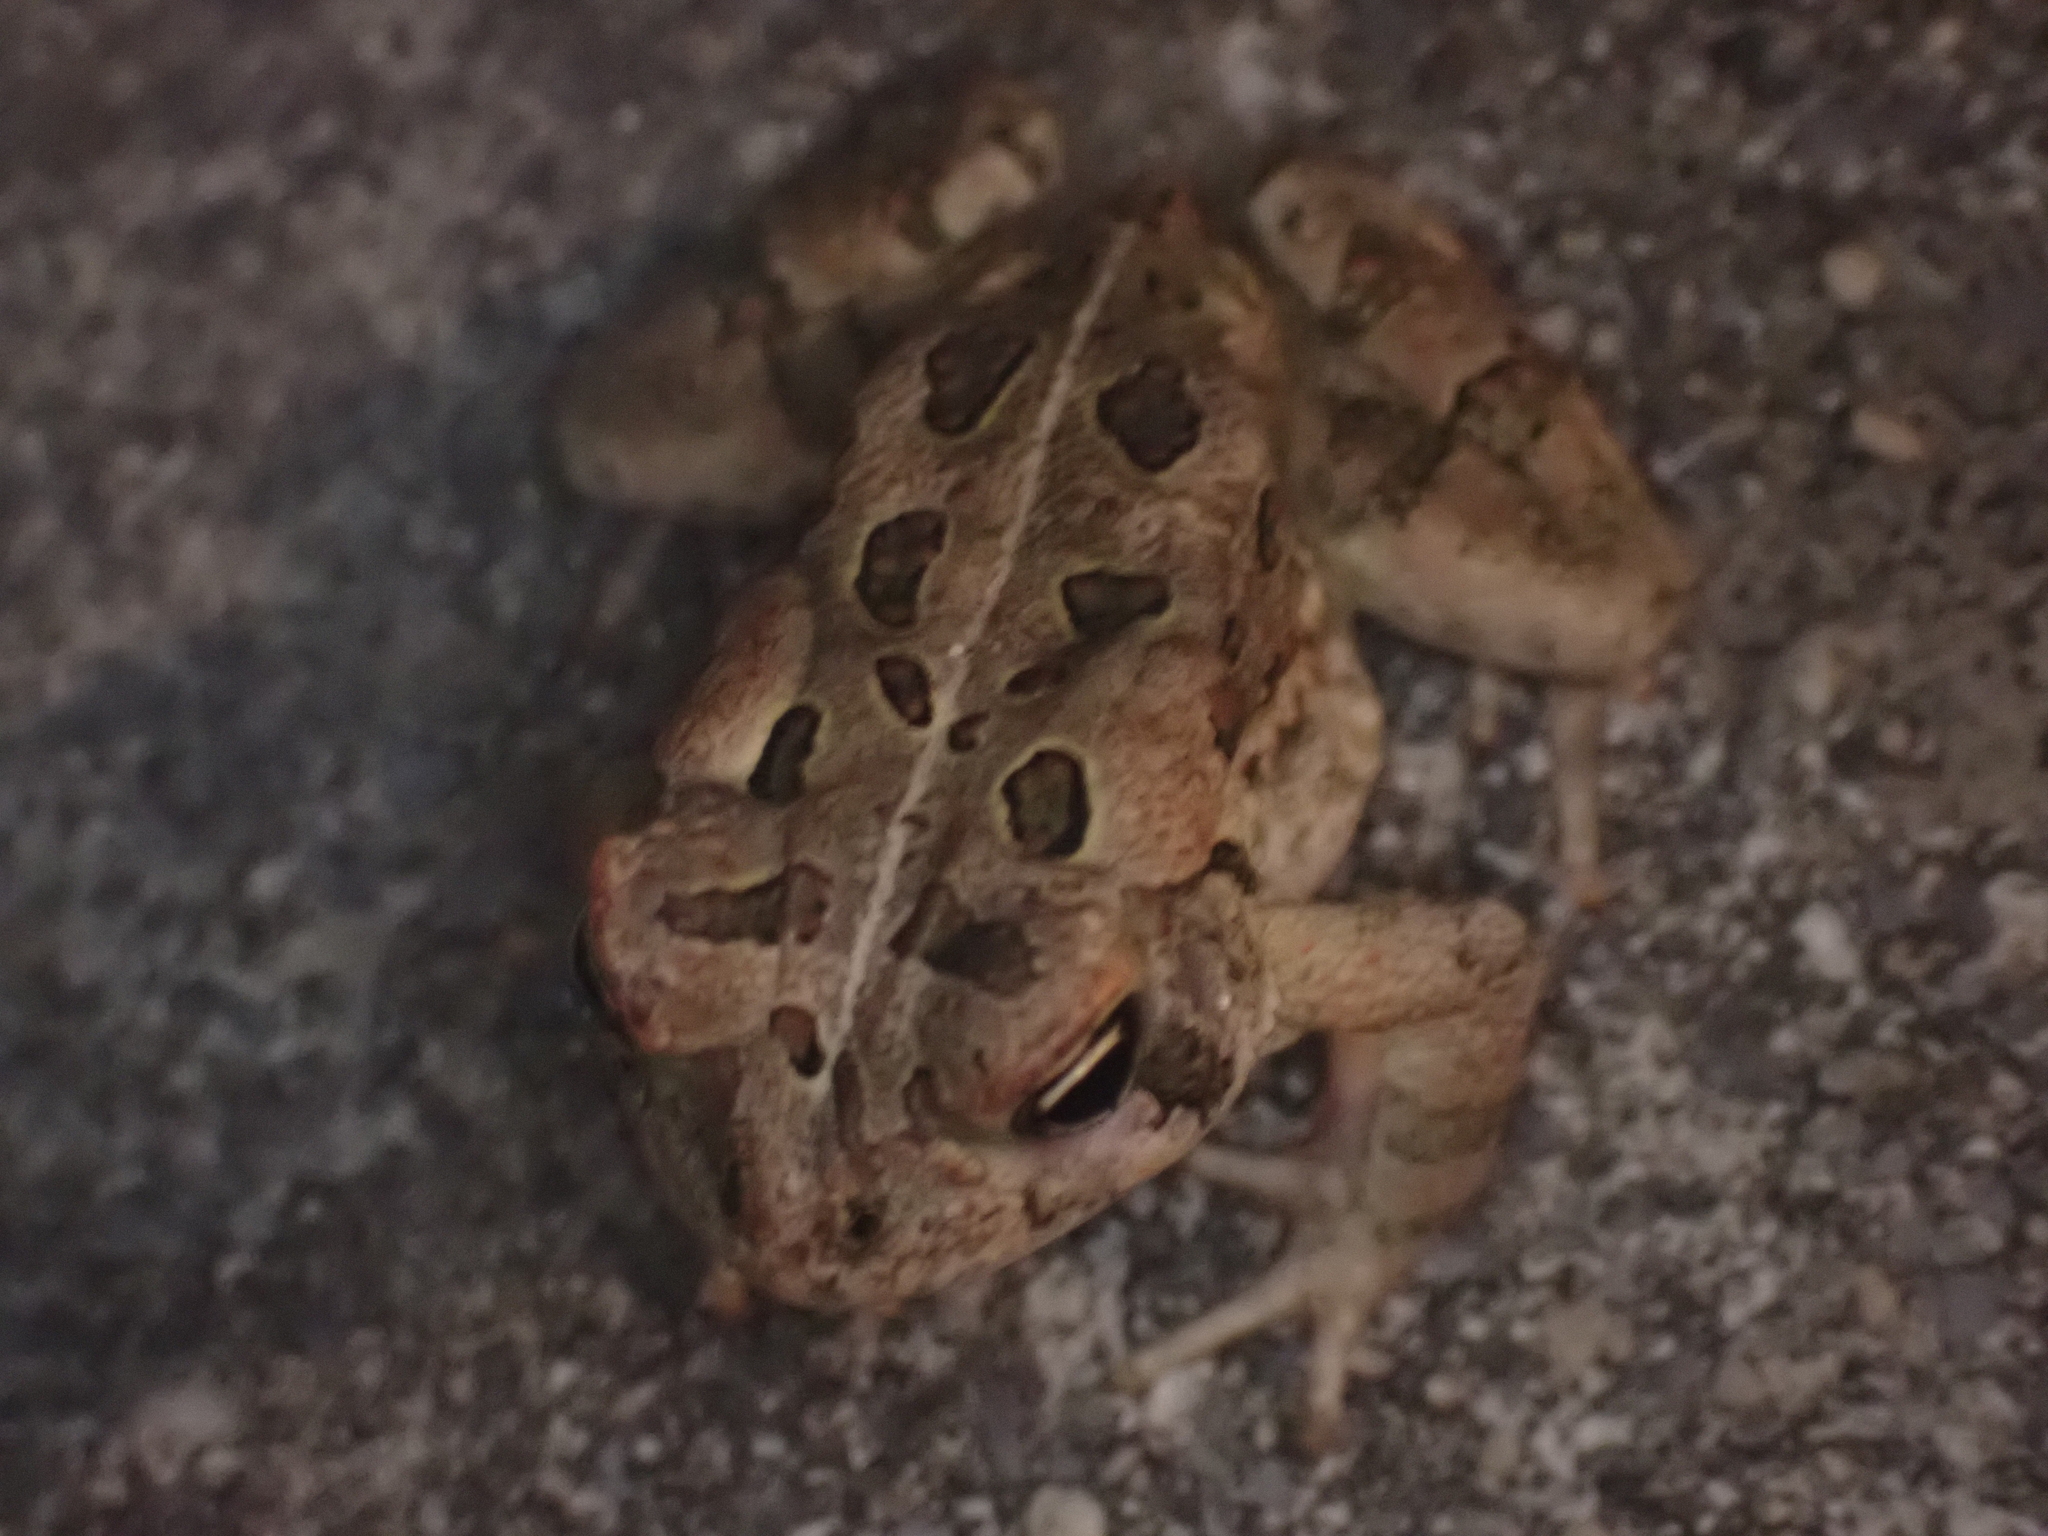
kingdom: Animalia
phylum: Chordata
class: Amphibia
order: Anura
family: Bufonidae
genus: Anaxyrus
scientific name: Anaxyrus fowleri
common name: Fowler's toad
